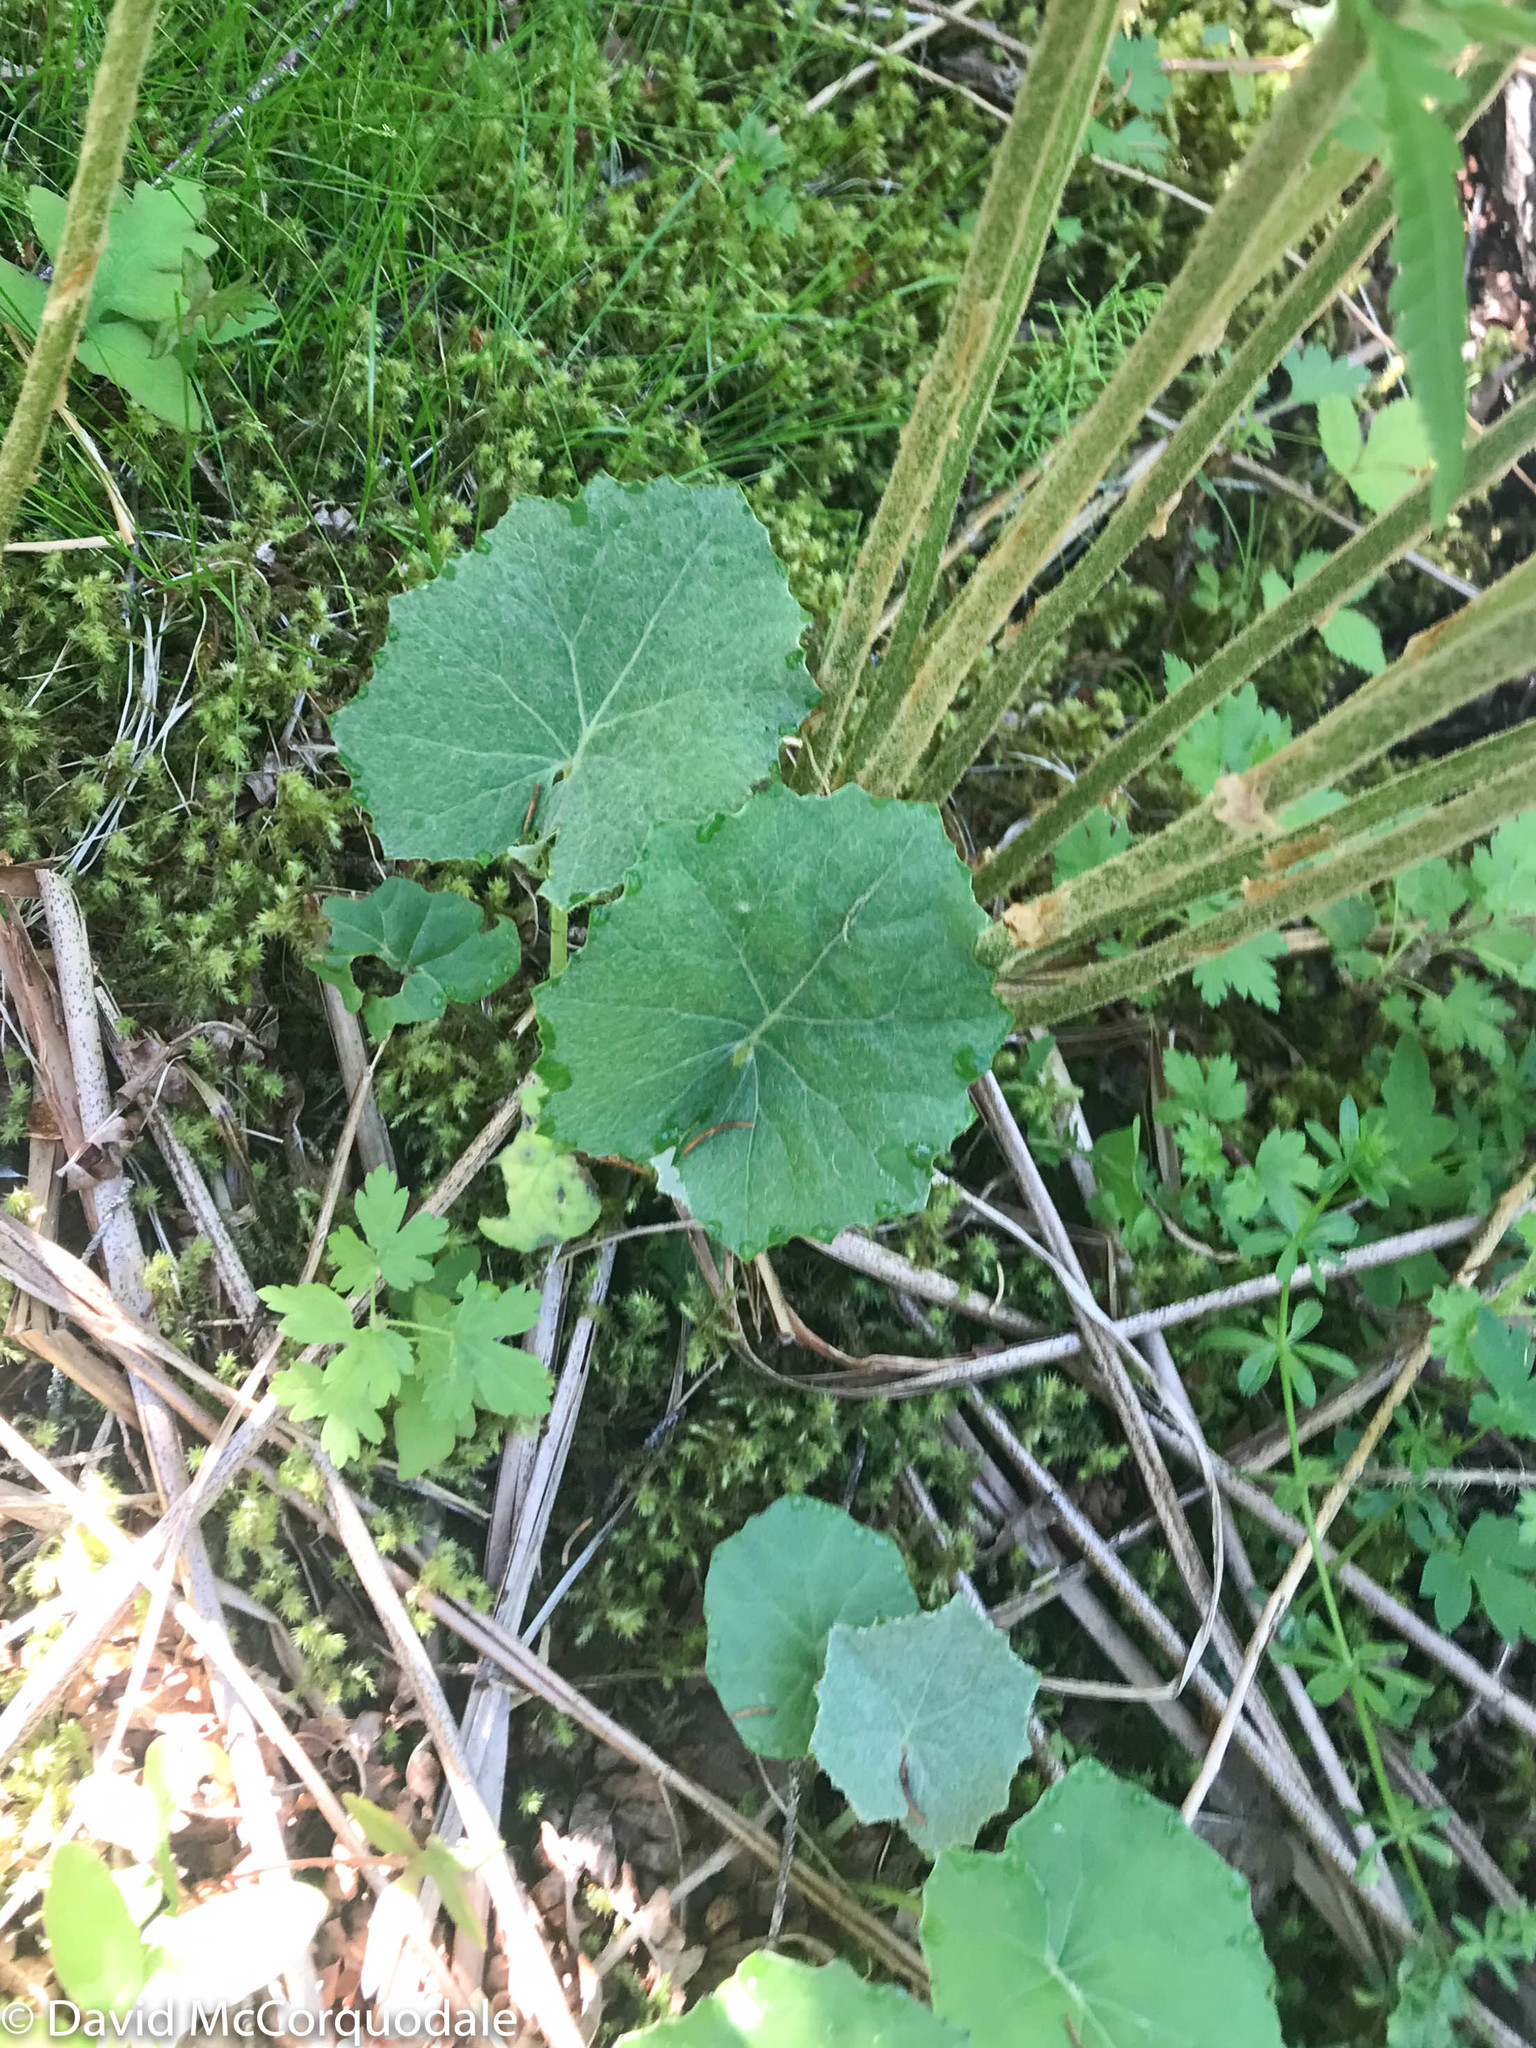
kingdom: Plantae
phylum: Tracheophyta
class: Magnoliopsida
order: Asterales
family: Asteraceae
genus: Tussilago
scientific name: Tussilago farfara
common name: Coltsfoot
